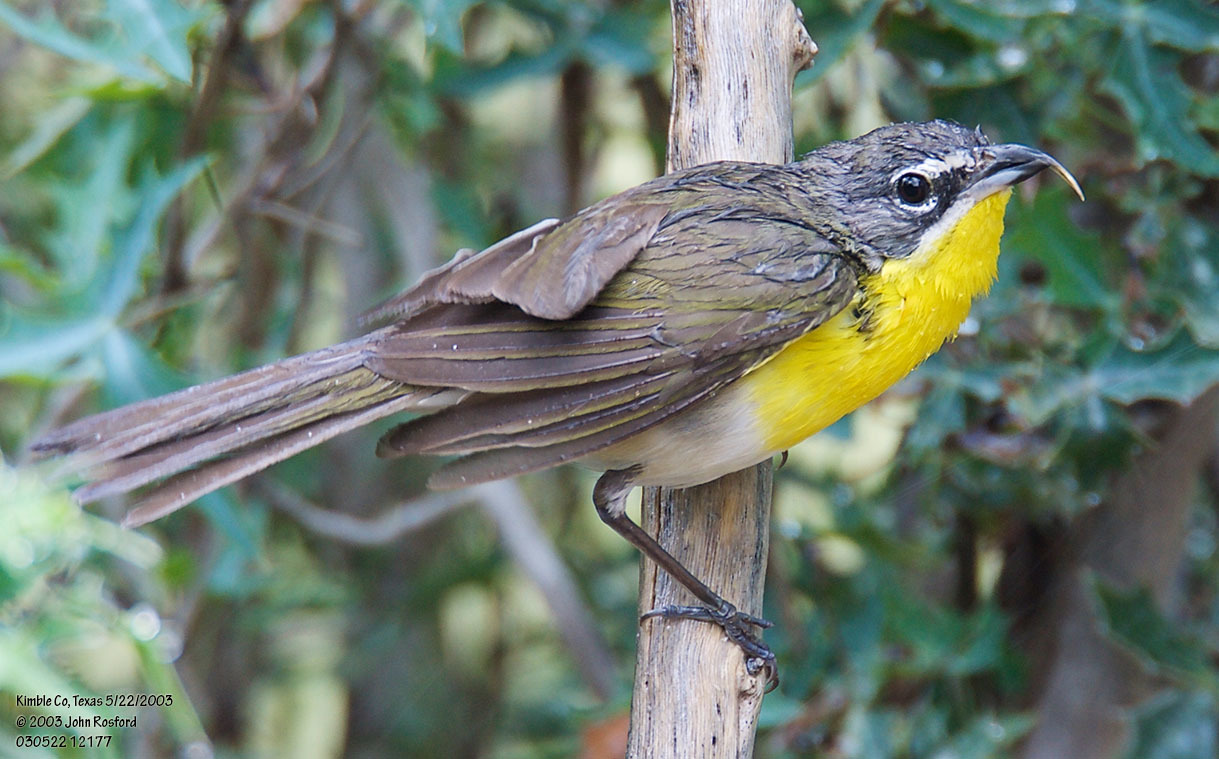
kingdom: Animalia
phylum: Chordata
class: Aves
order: Passeriformes
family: Parulidae
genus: Icteria
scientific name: Icteria virens
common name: Yellow-breasted chat
